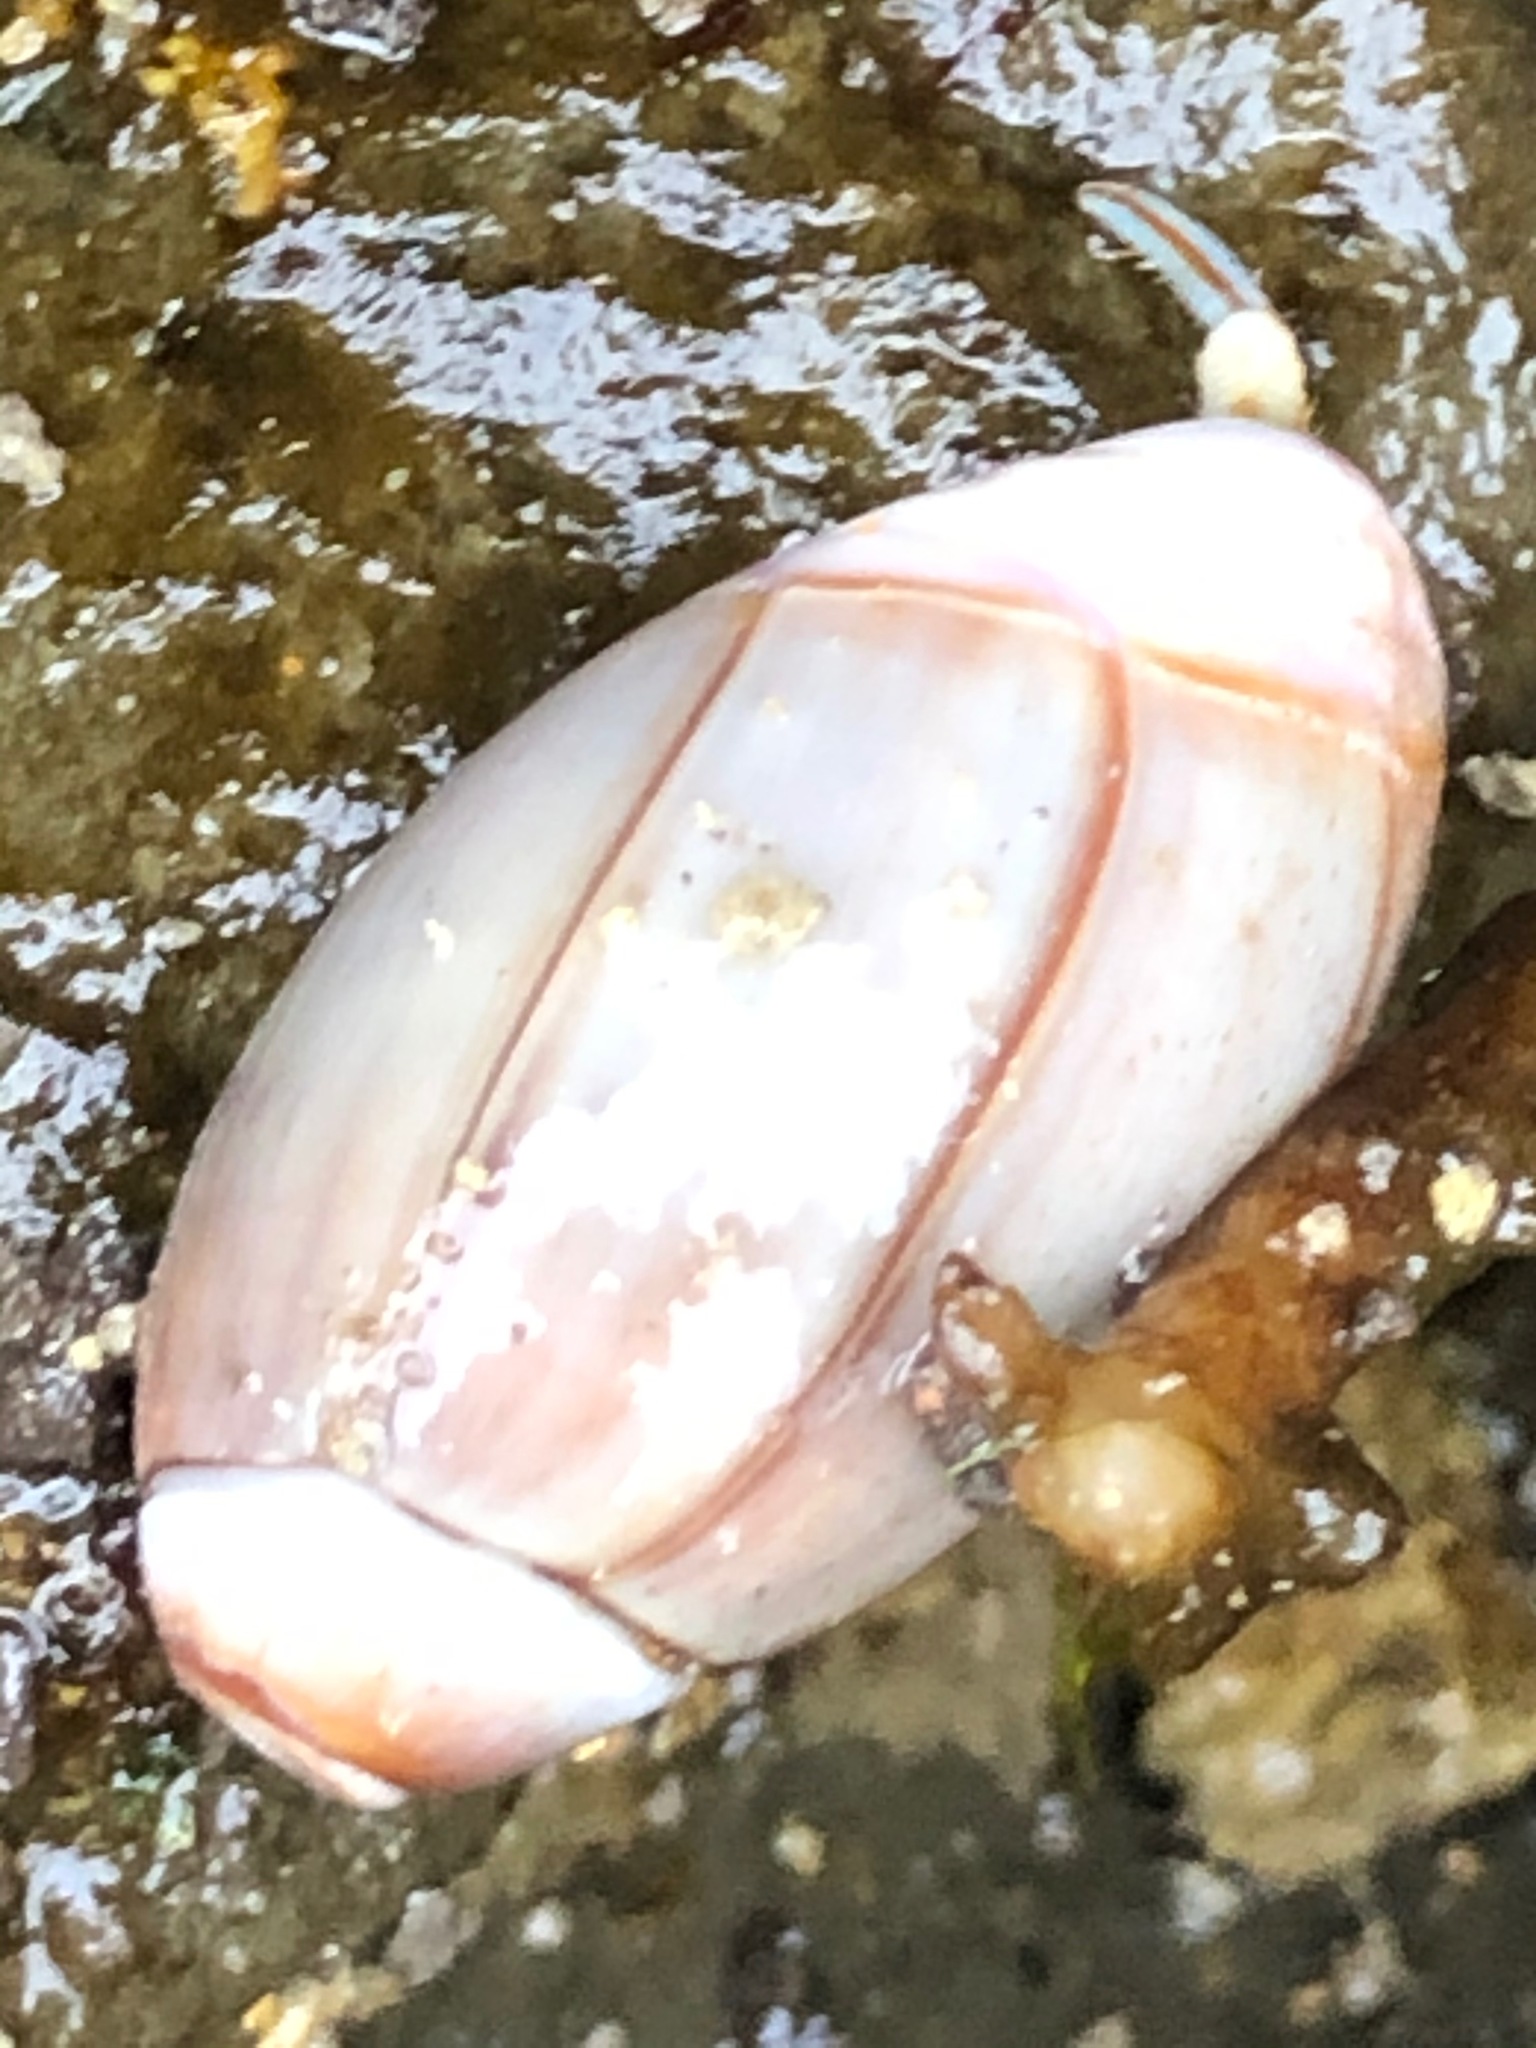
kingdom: Animalia
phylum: Mollusca
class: Gastropoda
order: Neogastropoda
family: Olividae
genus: Callianax
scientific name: Callianax biplicata
